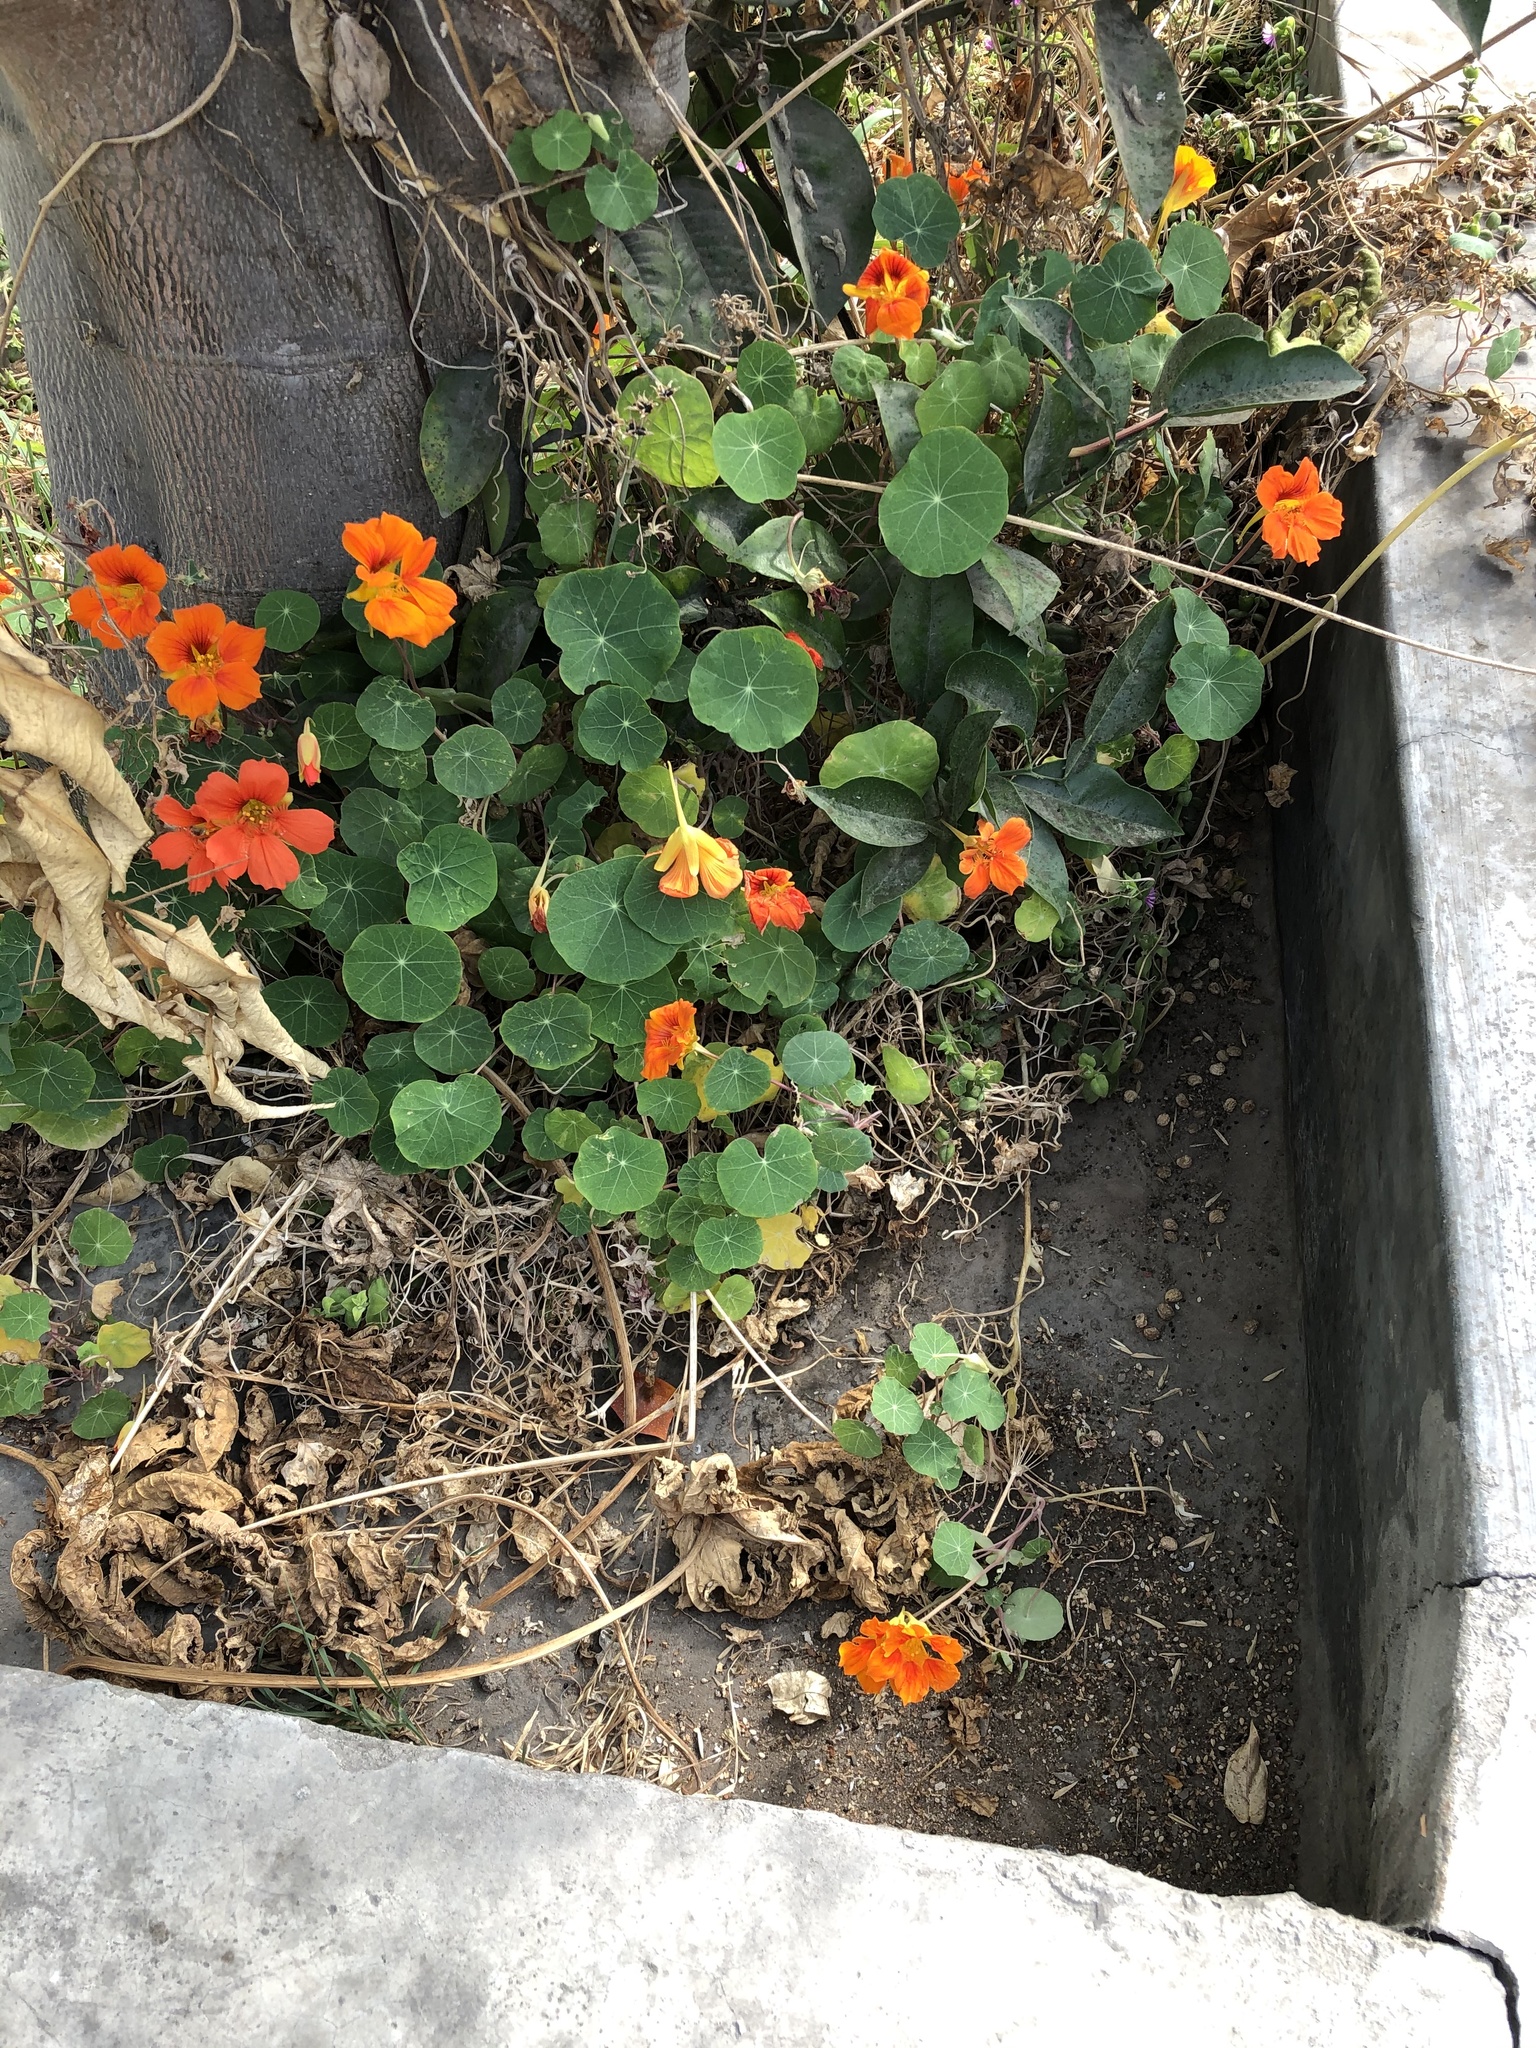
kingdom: Plantae
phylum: Tracheophyta
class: Magnoliopsida
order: Brassicales
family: Tropaeolaceae
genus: Tropaeolum
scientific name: Tropaeolum majus
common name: Nasturtium
